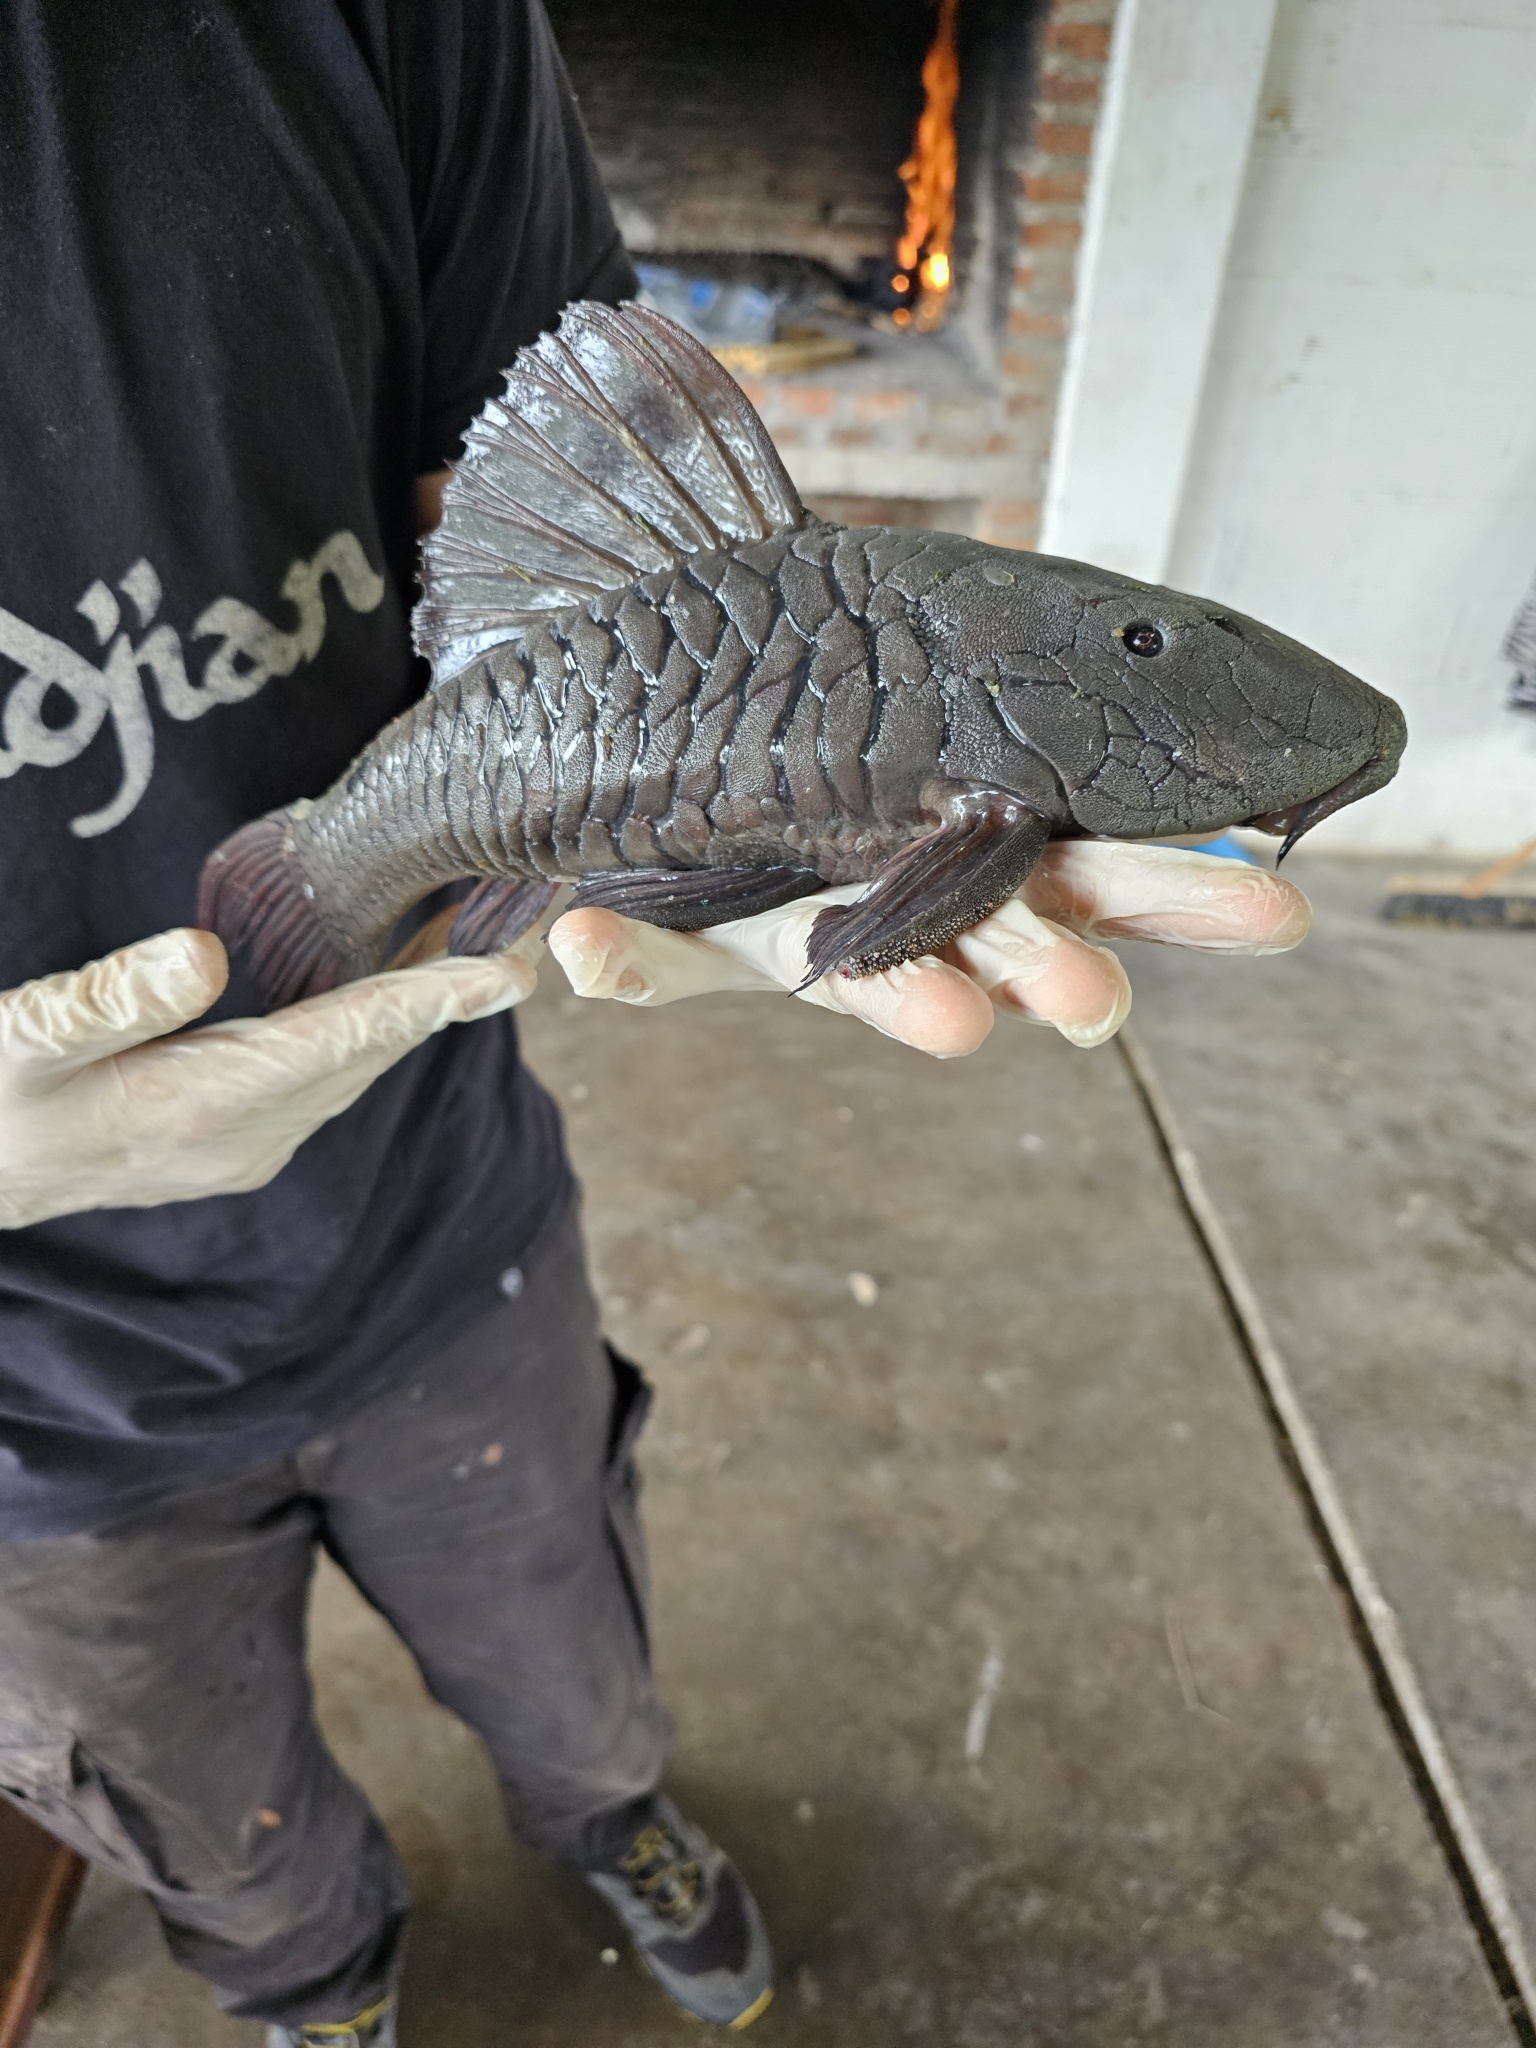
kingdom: Animalia
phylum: Chordata
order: Siluriformes
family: Loricariidae
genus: Rhinelepis
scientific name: Rhinelepis strigosa
